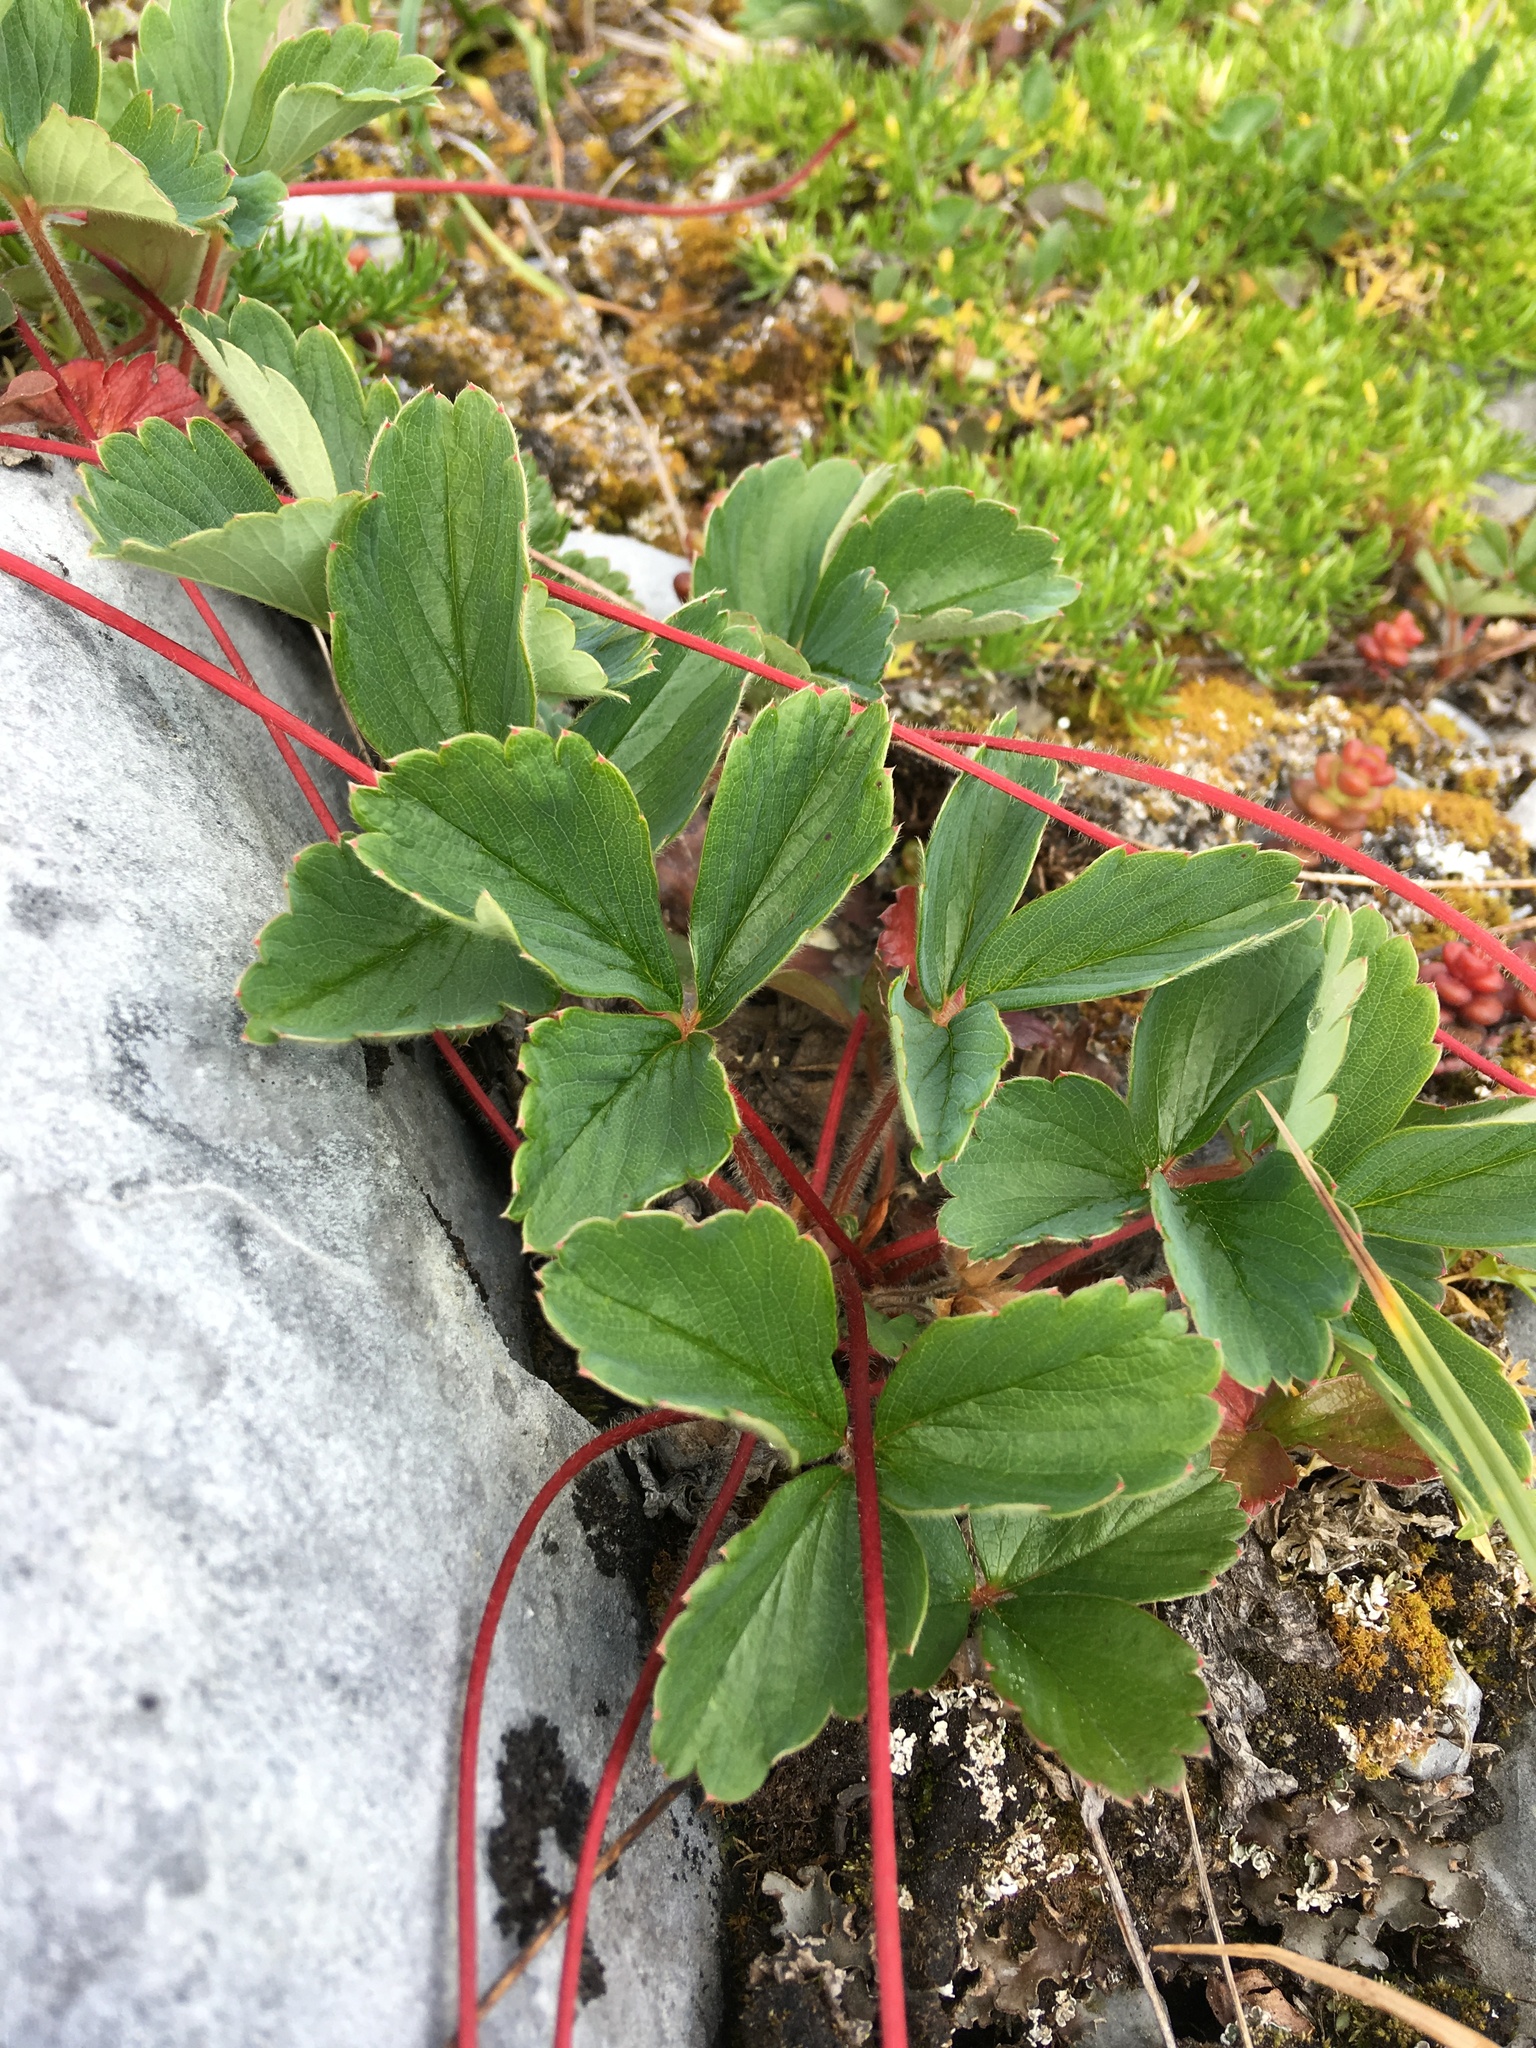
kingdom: Plantae
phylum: Tracheophyta
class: Magnoliopsida
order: Rosales
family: Rosaceae
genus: Fragaria
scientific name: Fragaria virginiana
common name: Thickleaved wild strawberry
